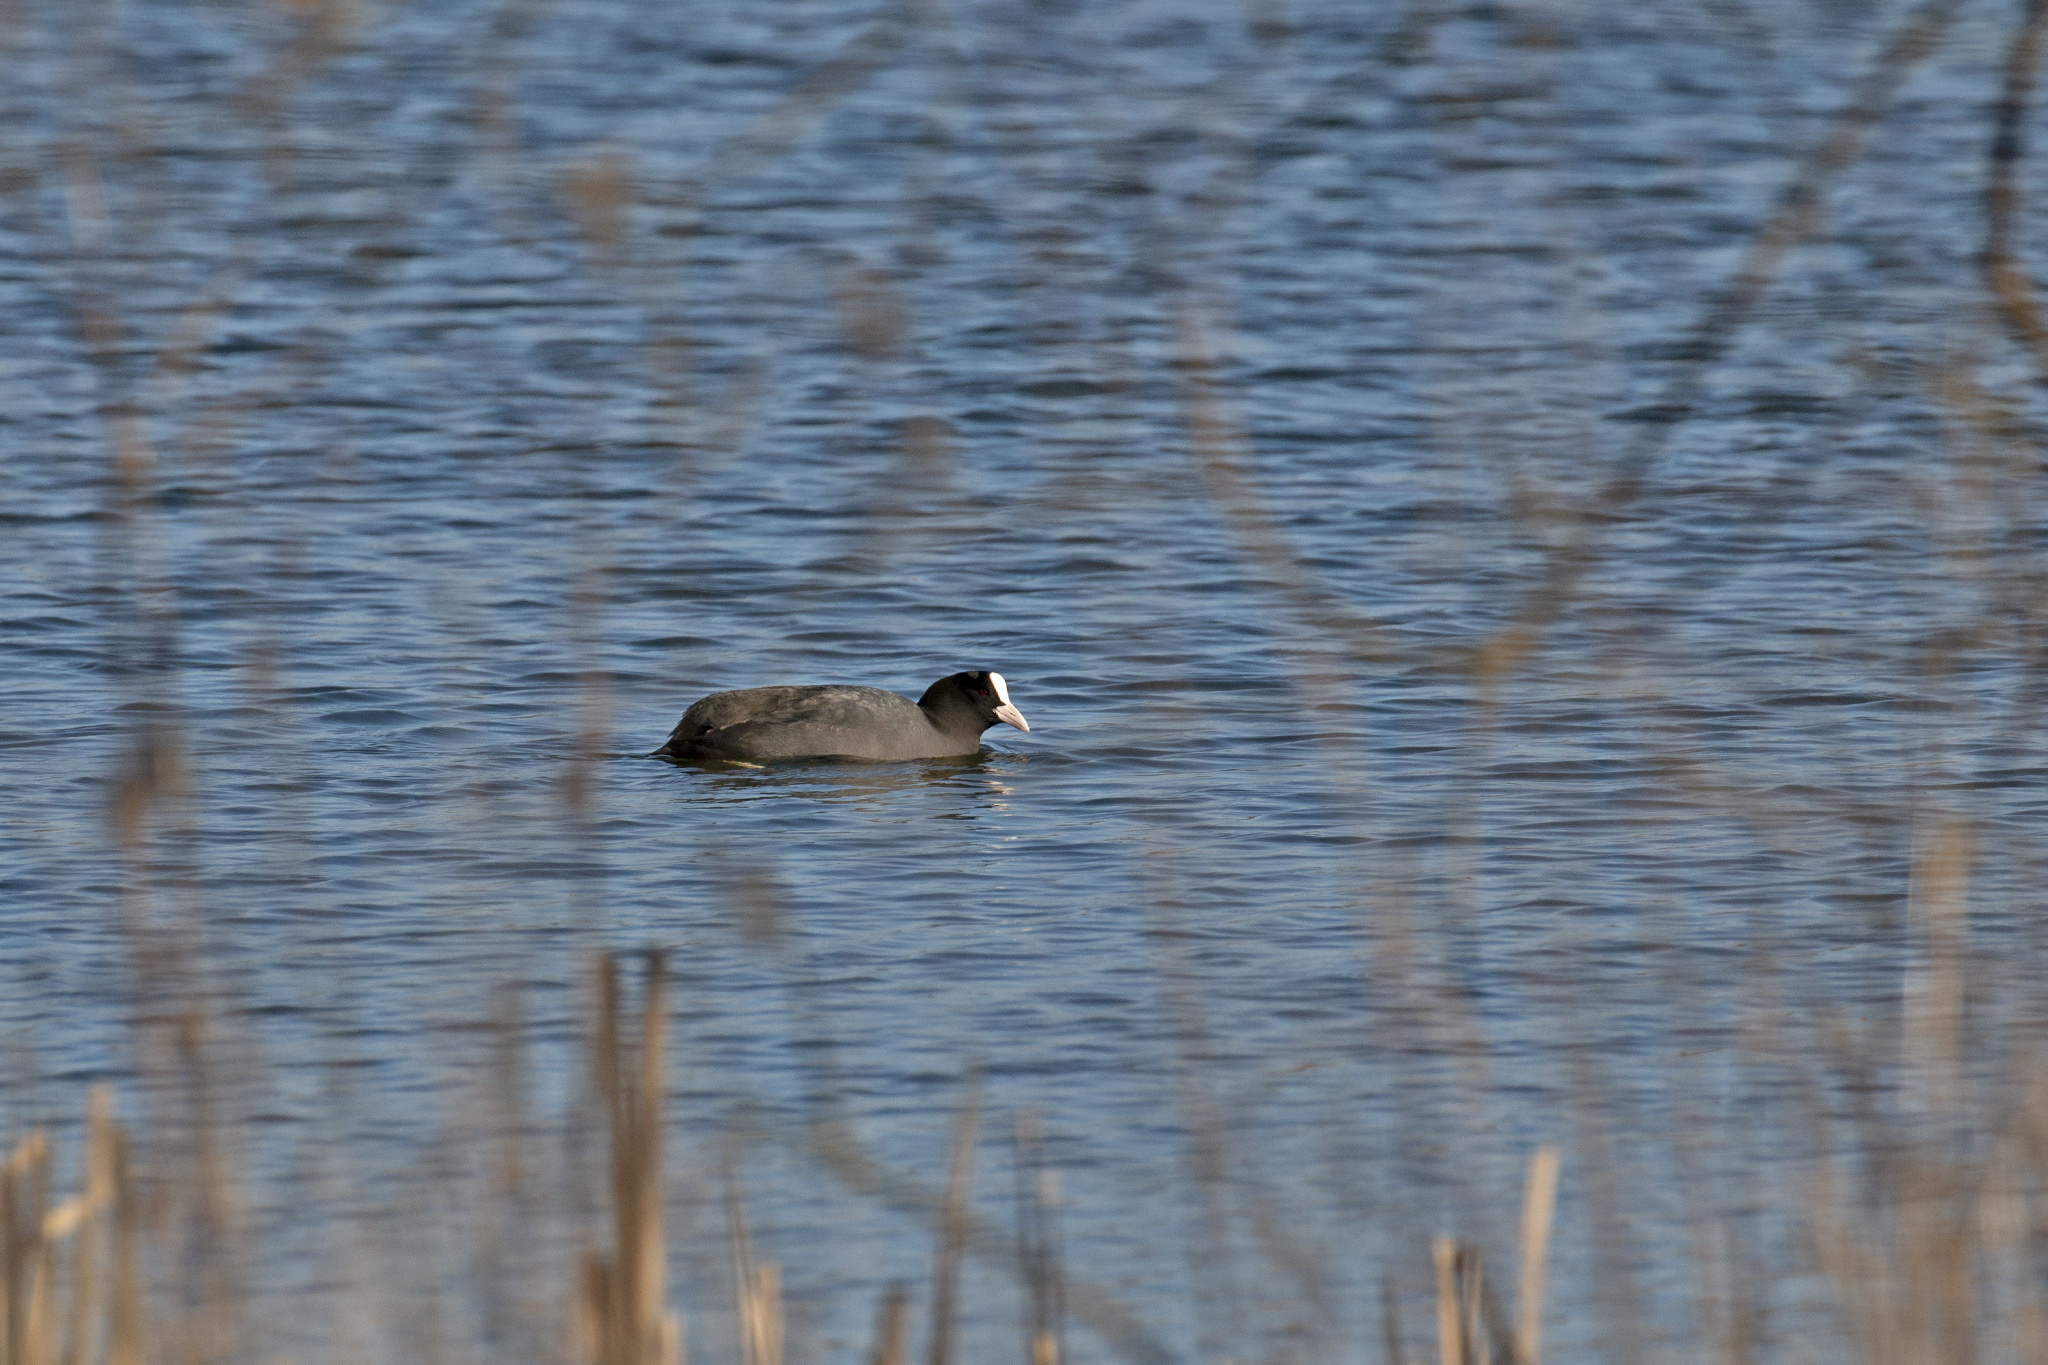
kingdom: Animalia
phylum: Chordata
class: Aves
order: Gruiformes
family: Rallidae
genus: Fulica
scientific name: Fulica atra
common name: Eurasian coot
